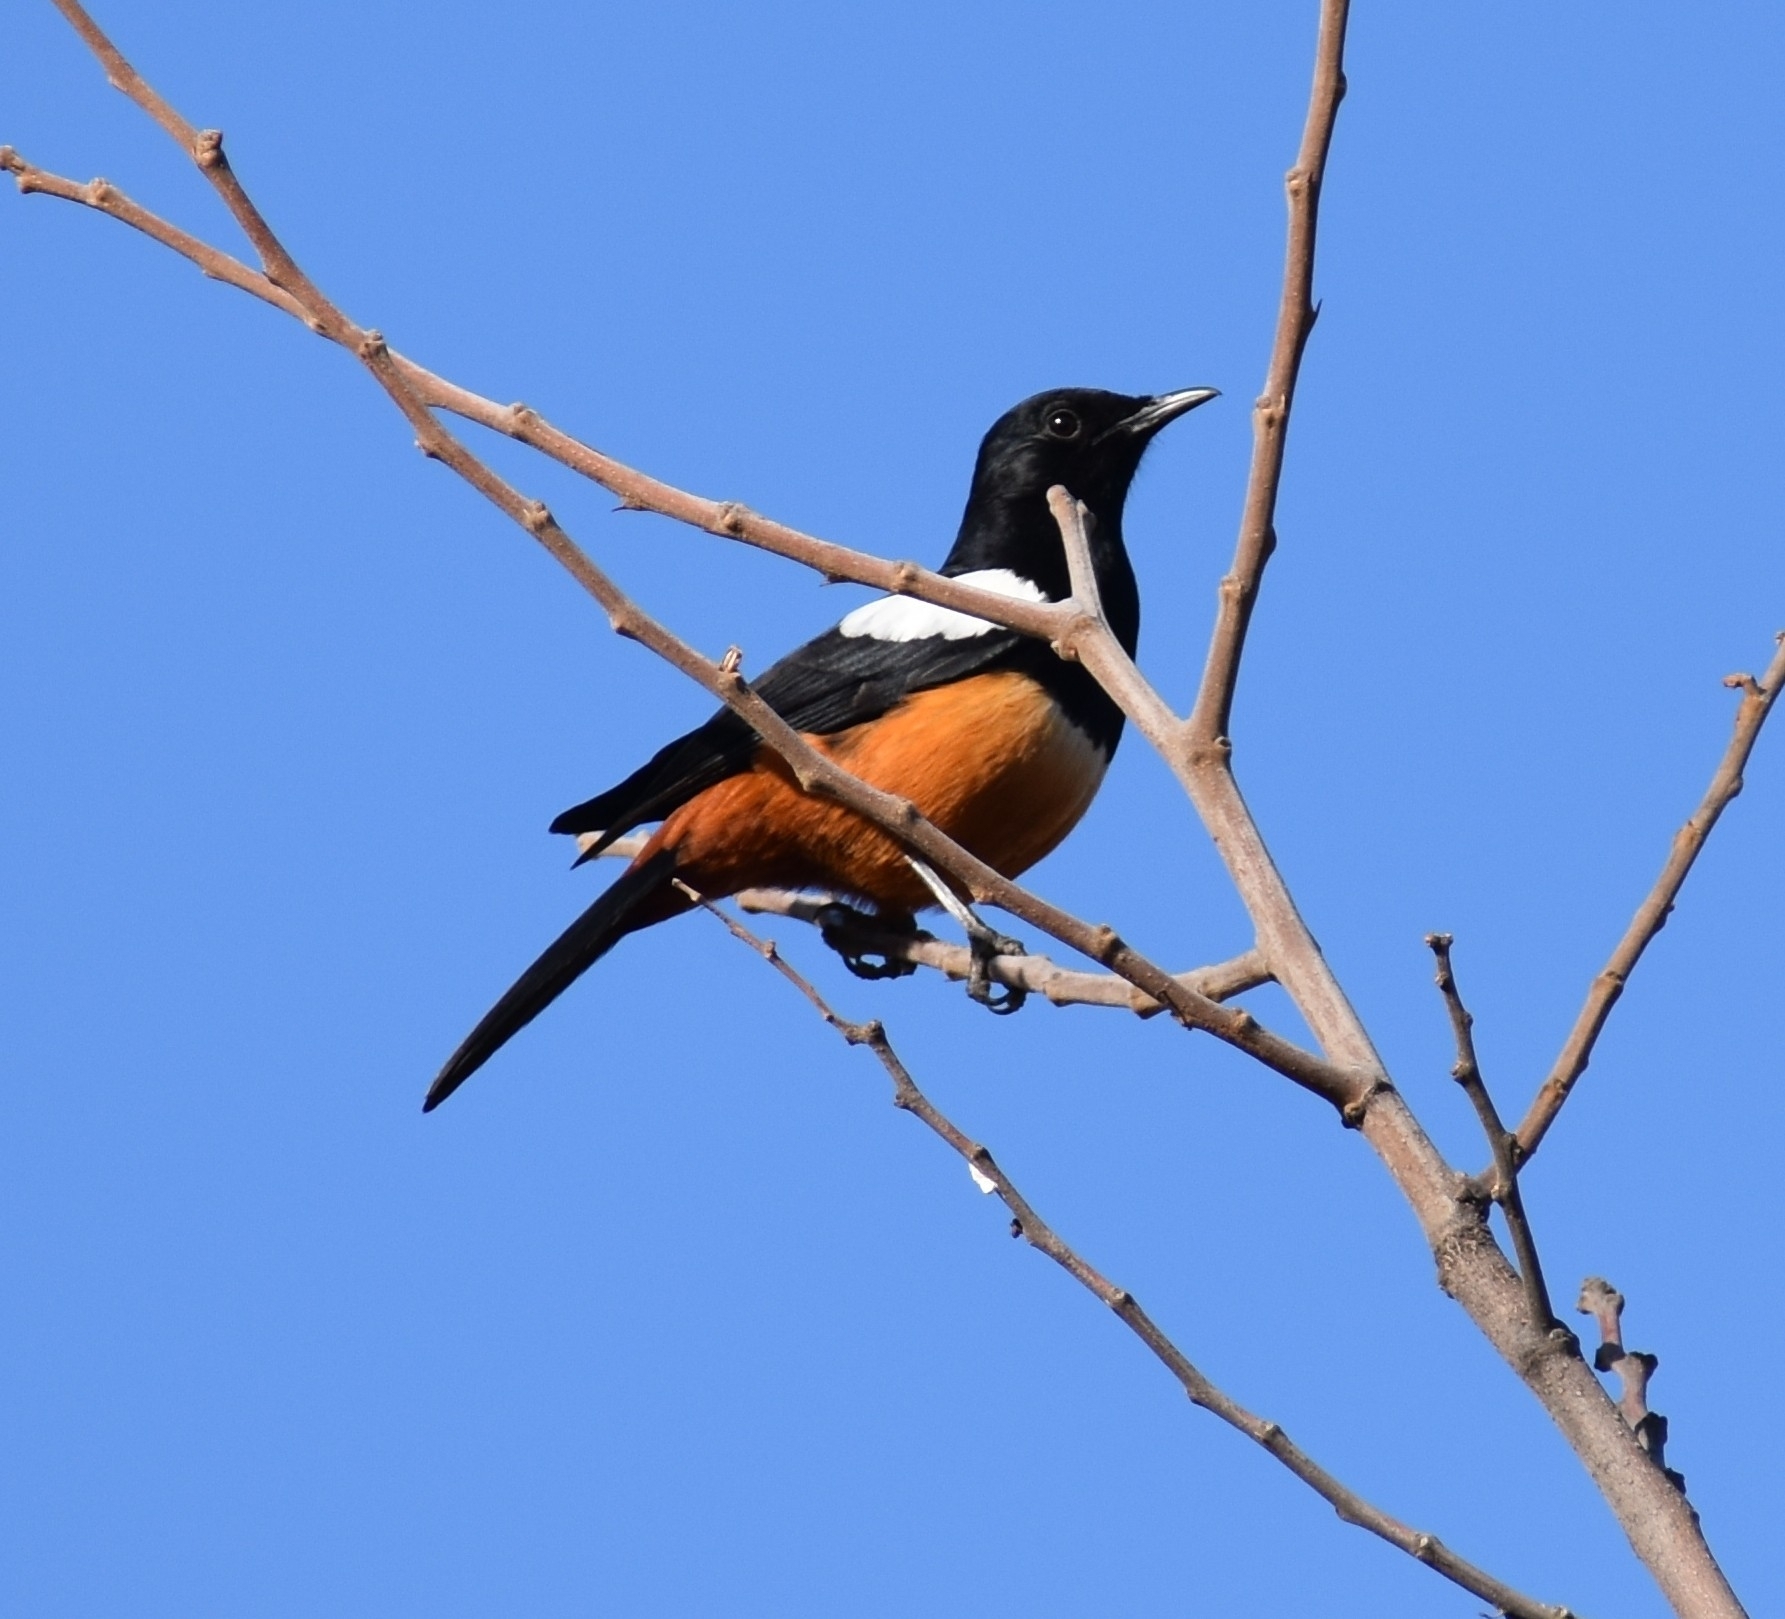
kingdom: Animalia
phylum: Chordata
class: Aves
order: Passeriformes
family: Muscicapidae
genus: Thamnolaea
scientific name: Thamnolaea cinnamomeiventris
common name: Mocking cliff chat
